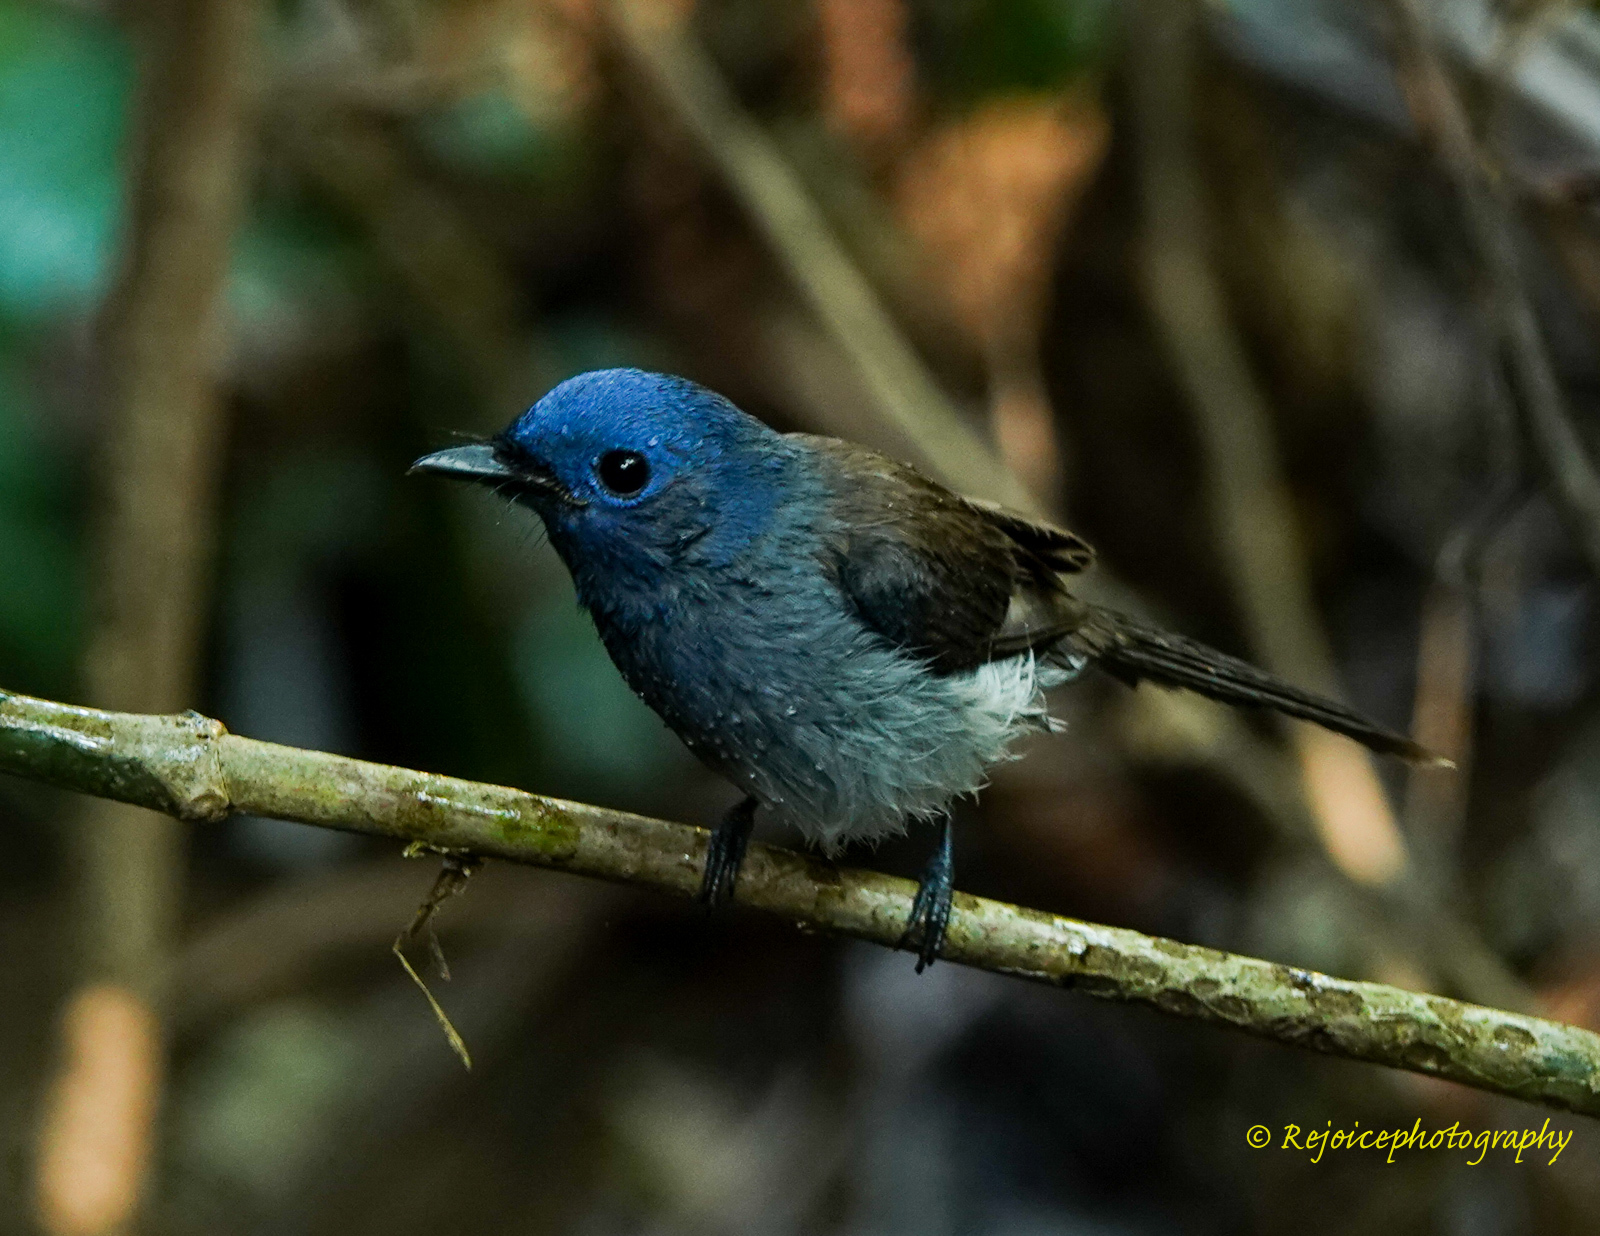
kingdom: Animalia
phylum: Chordata
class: Aves
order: Passeriformes
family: Monarchidae
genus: Hypothymis
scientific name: Hypothymis azurea
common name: Black-naped monarch
